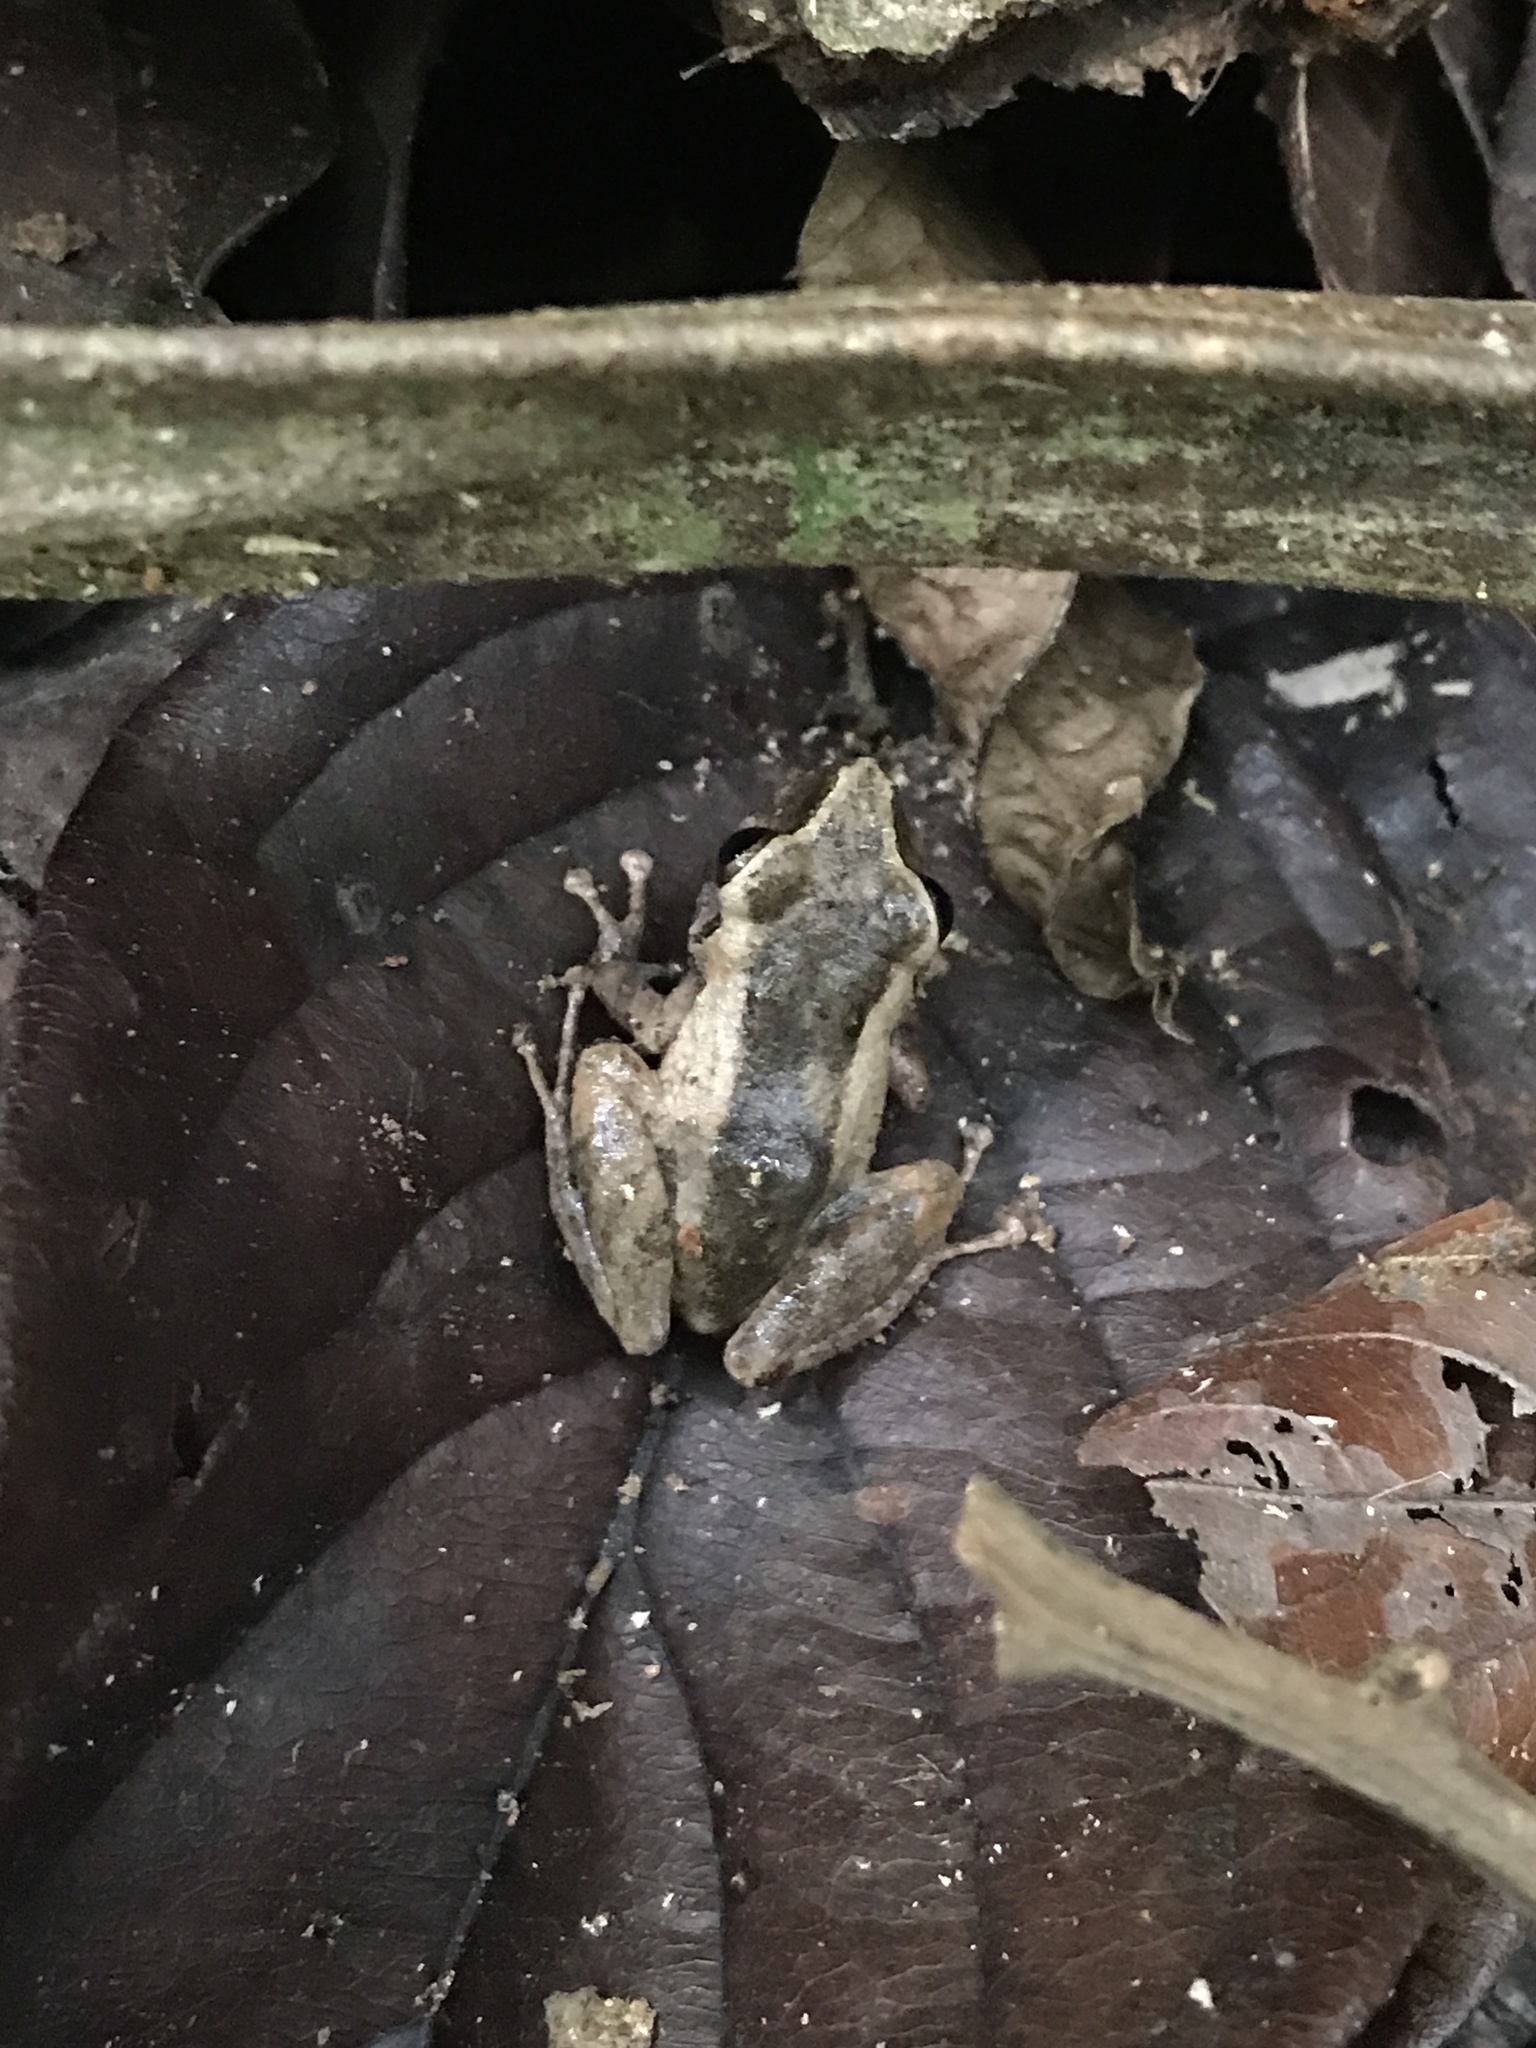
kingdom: Animalia
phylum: Chordata
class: Amphibia
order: Anura
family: Craugastoridae
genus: Pristimantis
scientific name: Pristimantis cerasinus
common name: Limon robber frog
